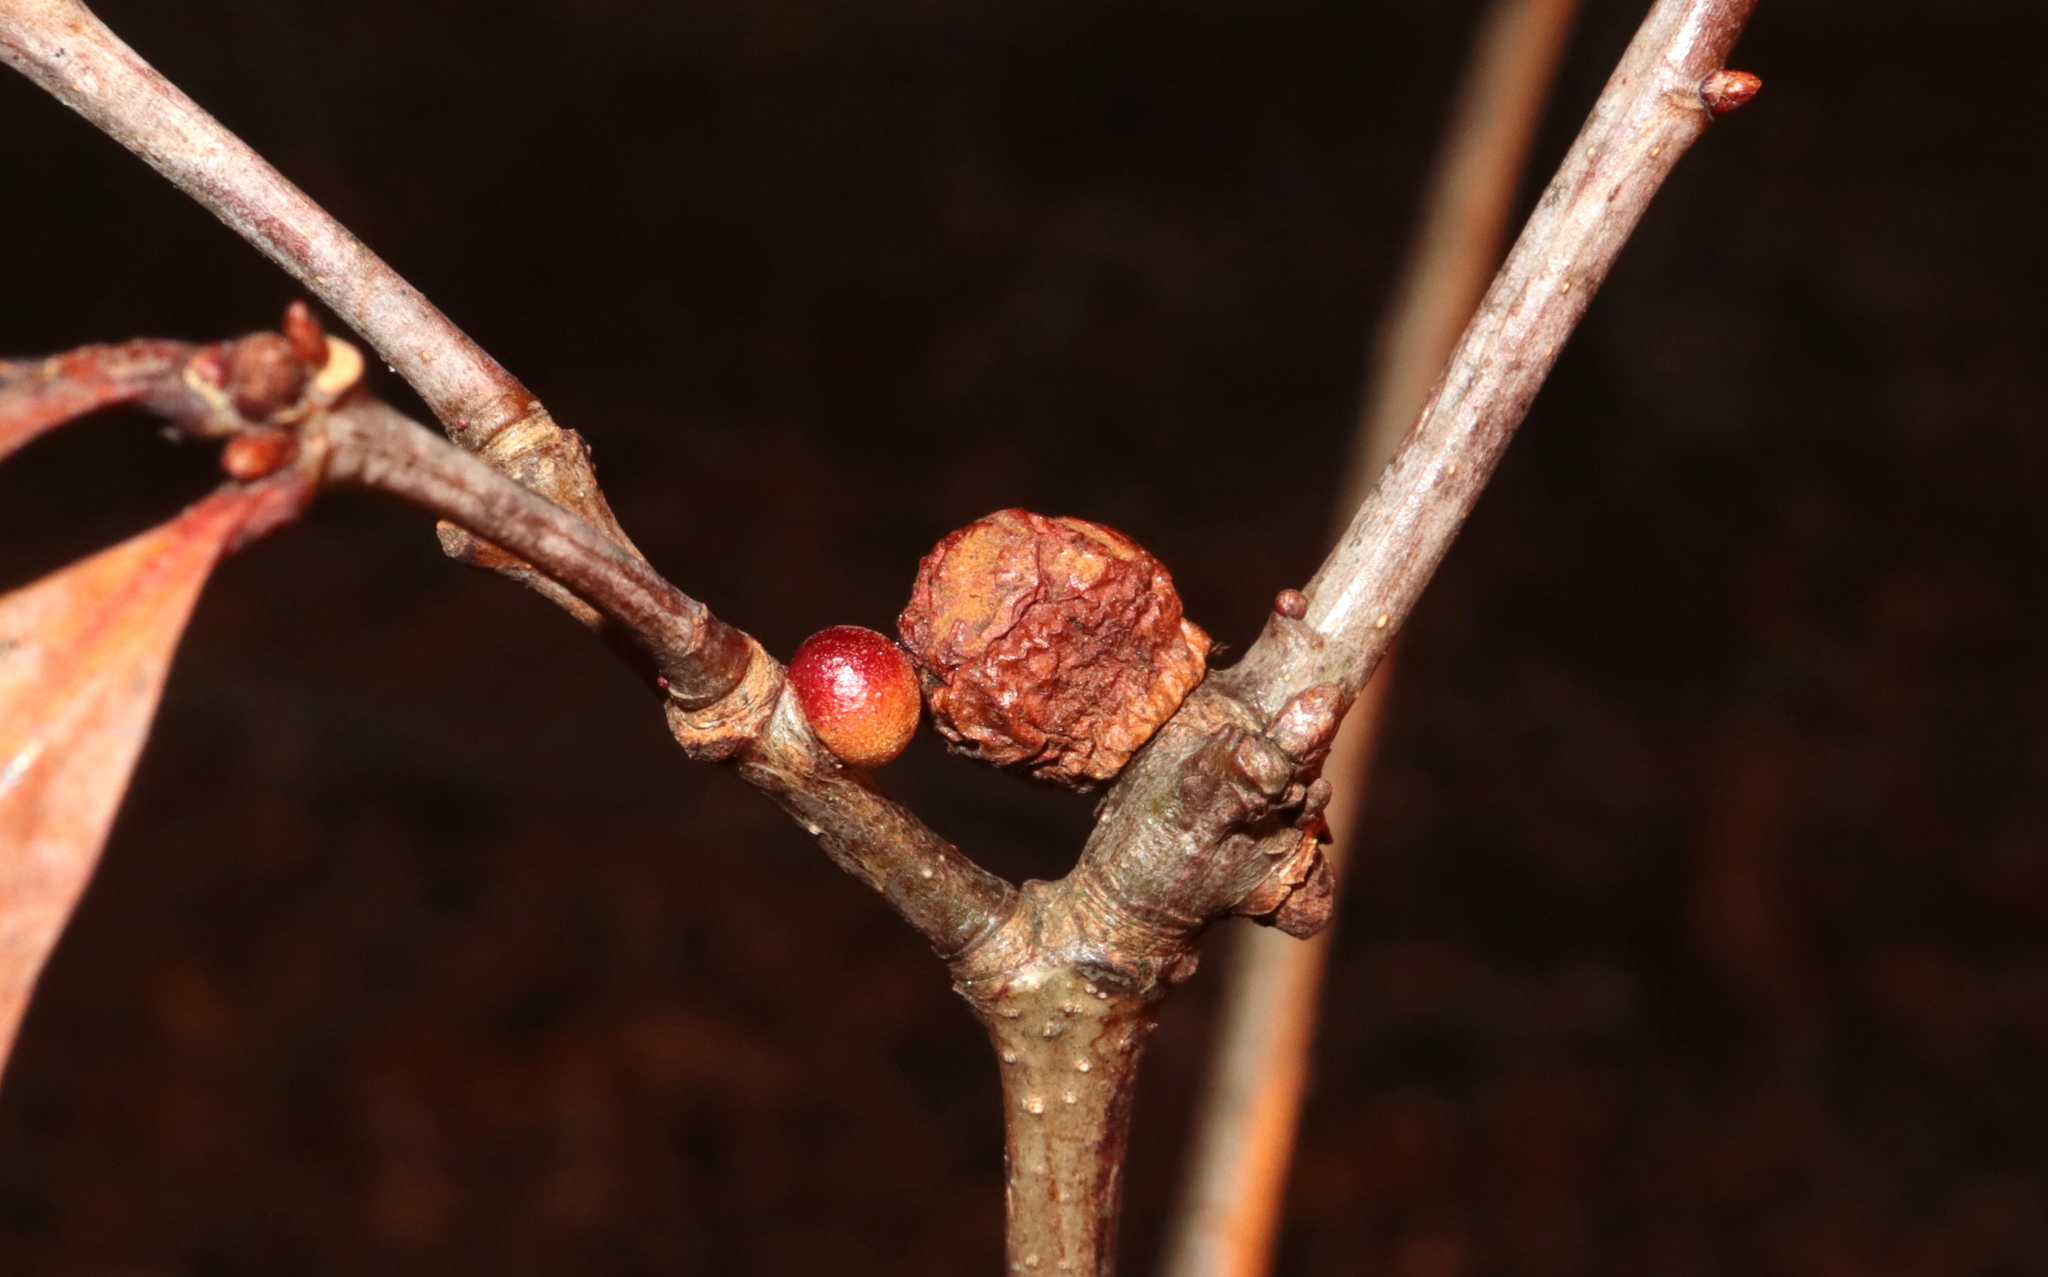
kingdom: Animalia
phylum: Arthropoda
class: Insecta
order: Hymenoptera
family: Cynipidae
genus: Disholcaspis
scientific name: Disholcaspis quercusglobulus
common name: Round bullet gall wasp
